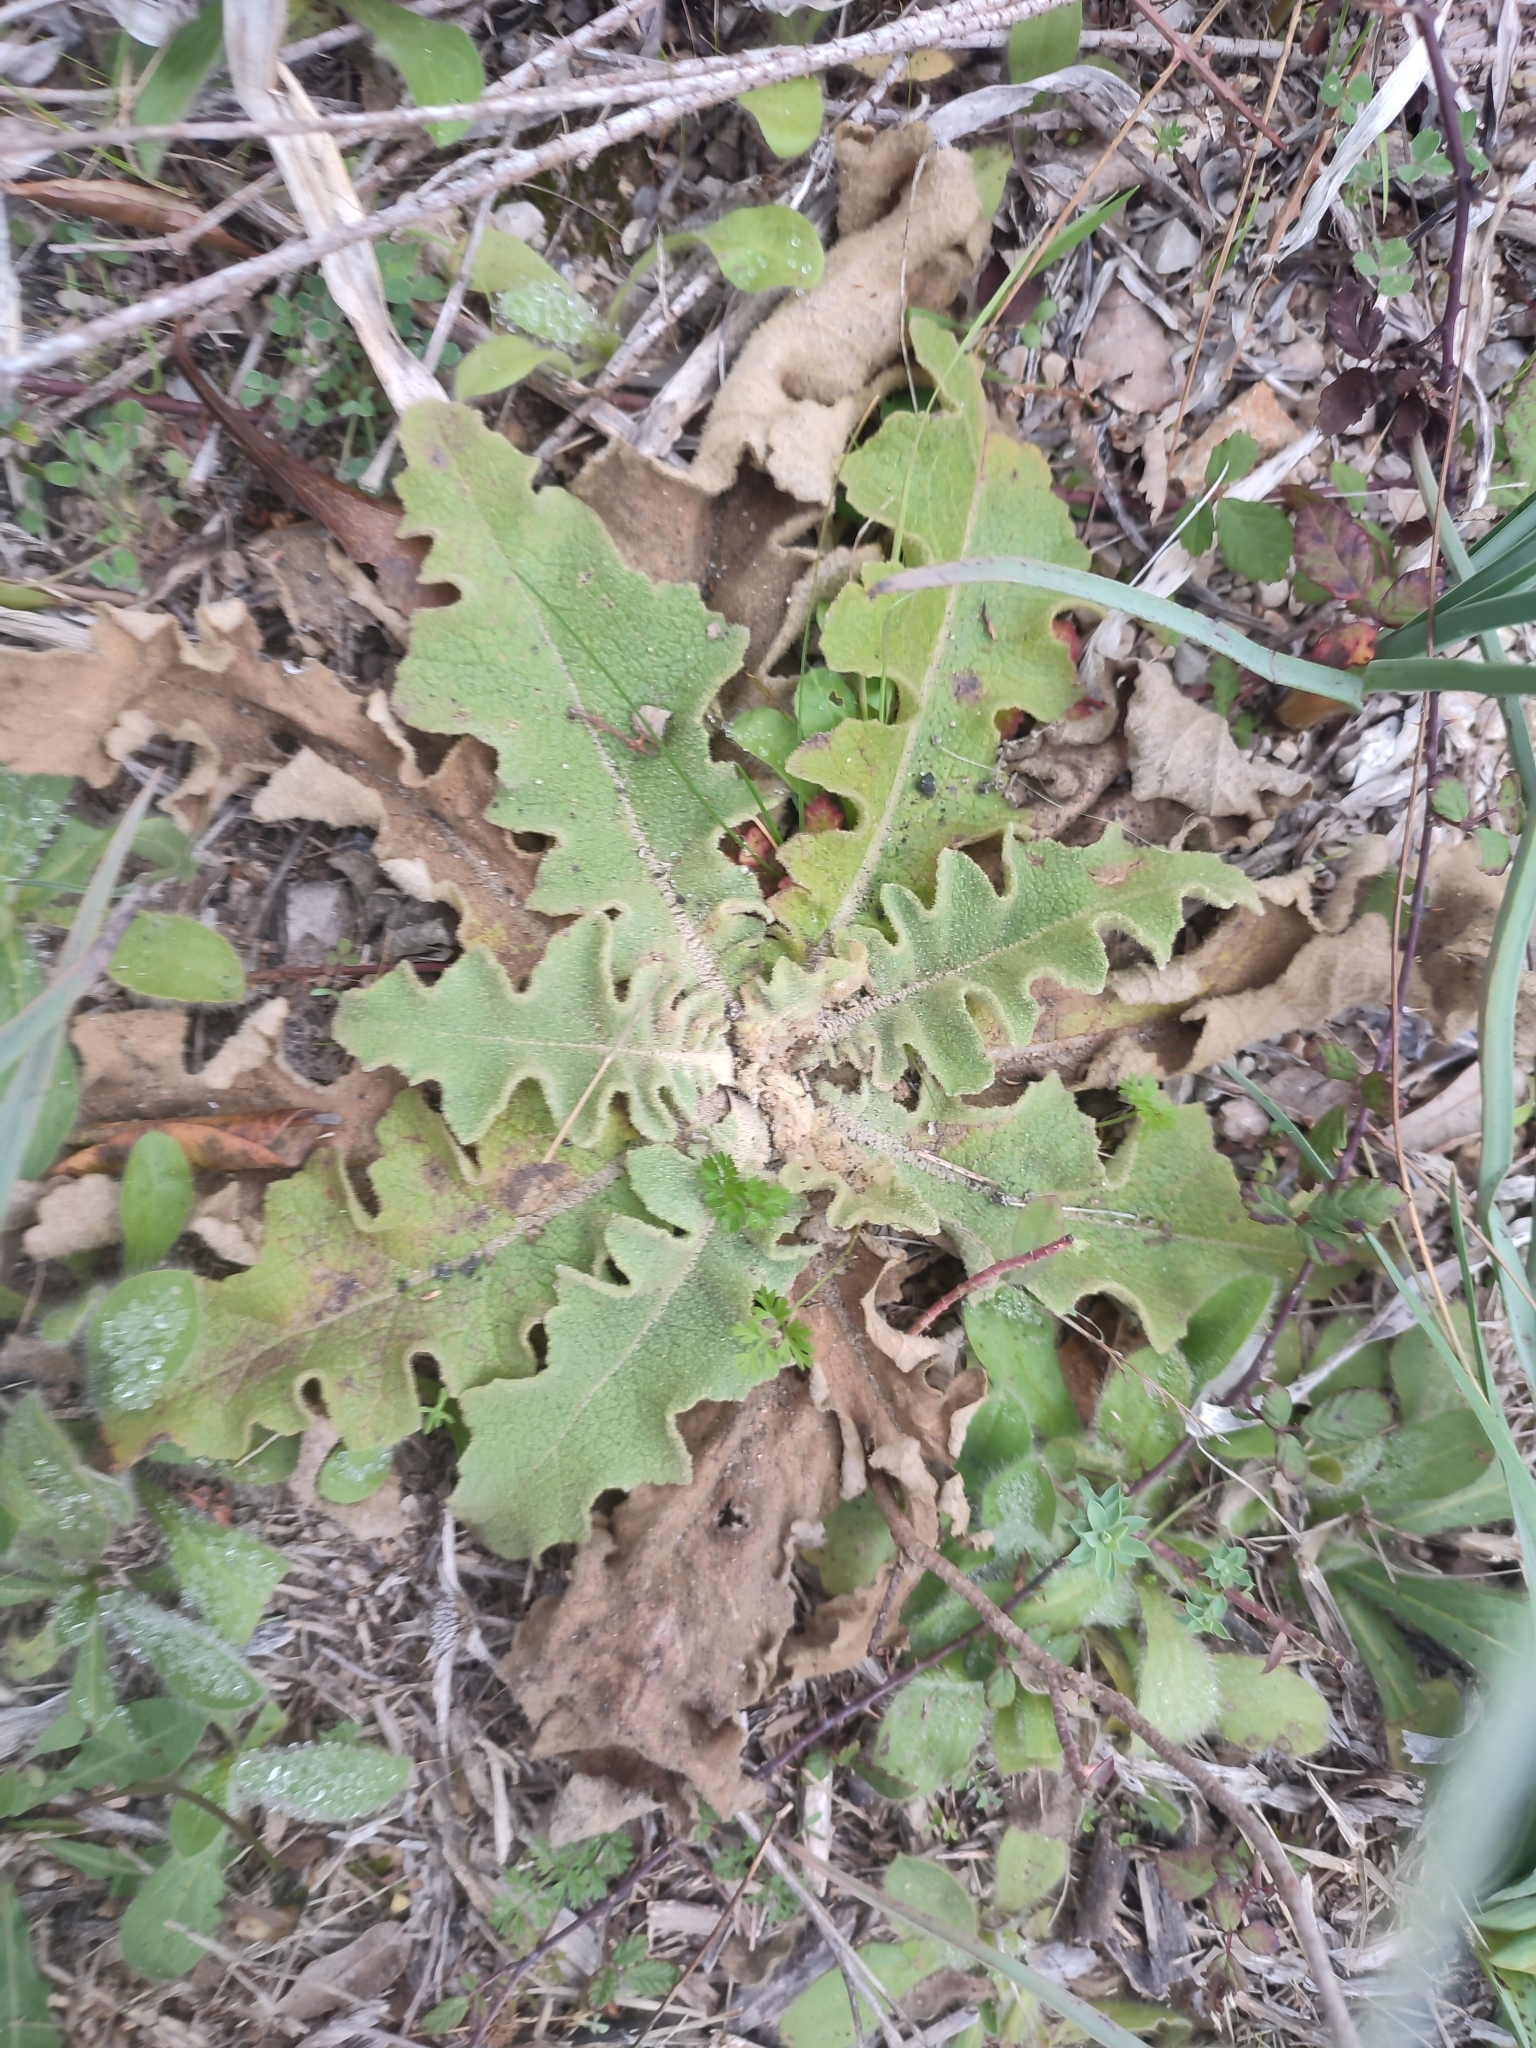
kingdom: Plantae
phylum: Tracheophyta
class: Magnoliopsida
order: Lamiales
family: Scrophulariaceae
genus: Verbascum
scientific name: Verbascum sinuatum
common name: Wavyleaf mullein
